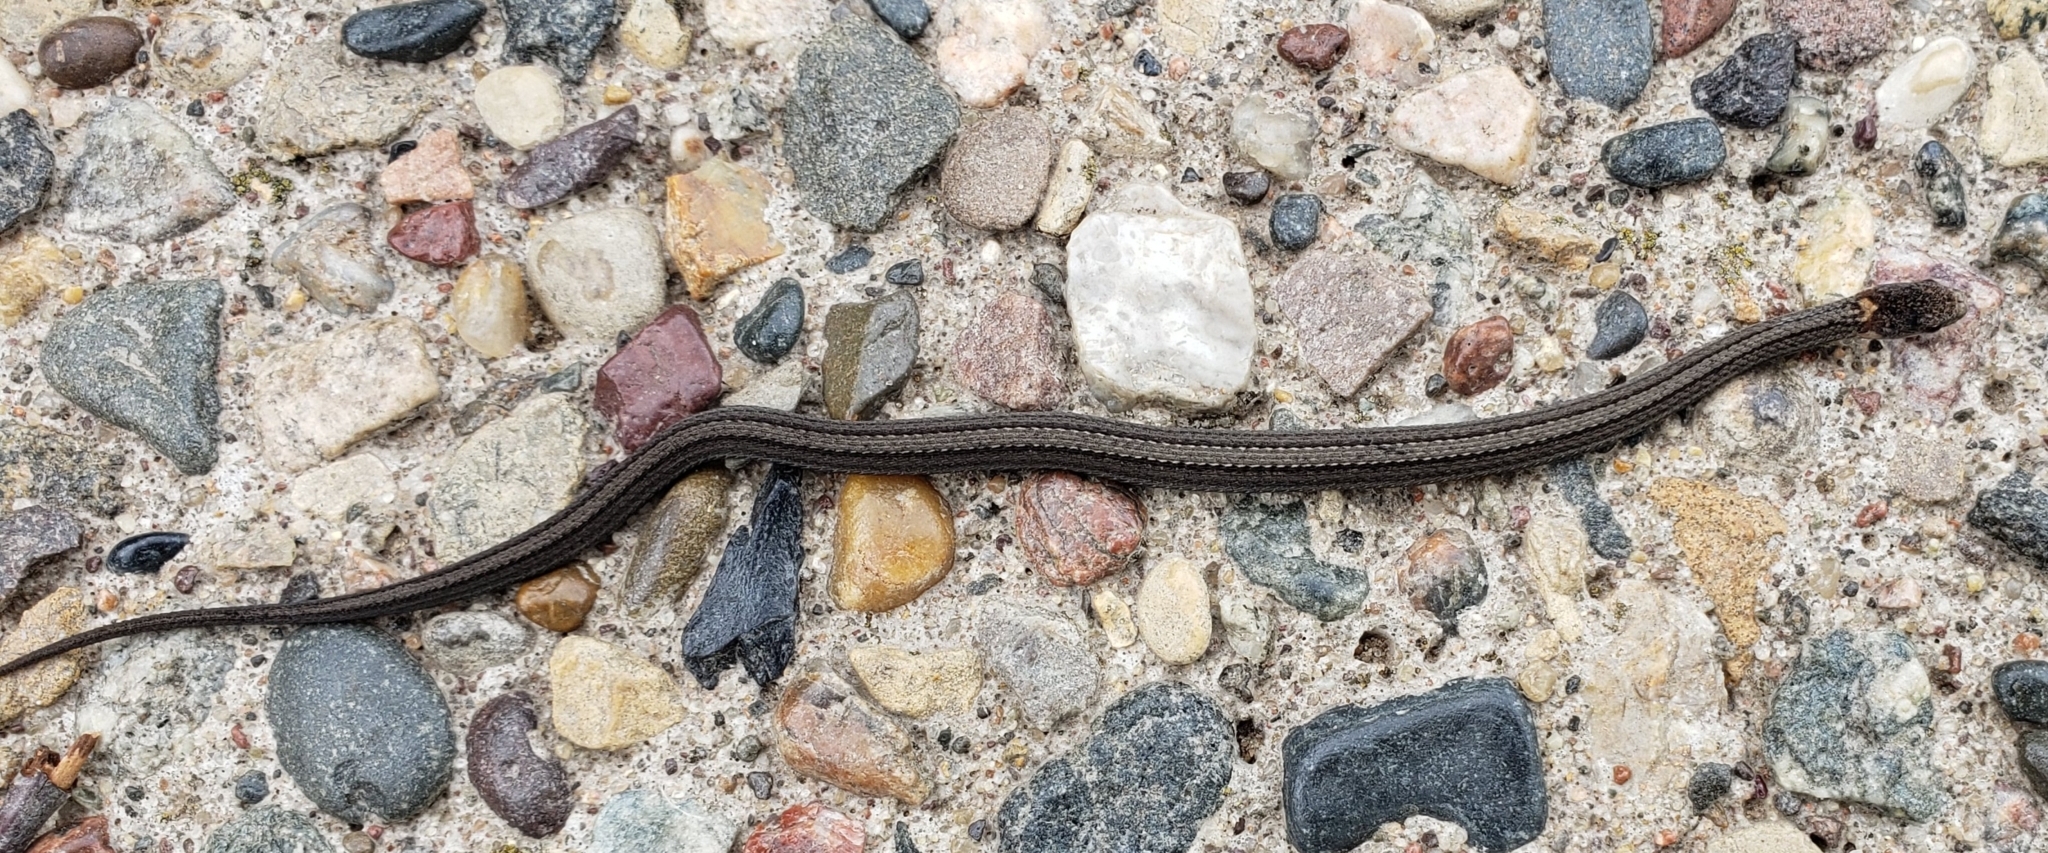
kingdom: Animalia
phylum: Chordata
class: Squamata
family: Colubridae
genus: Storeria
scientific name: Storeria occipitomaculata
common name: Redbelly snake
